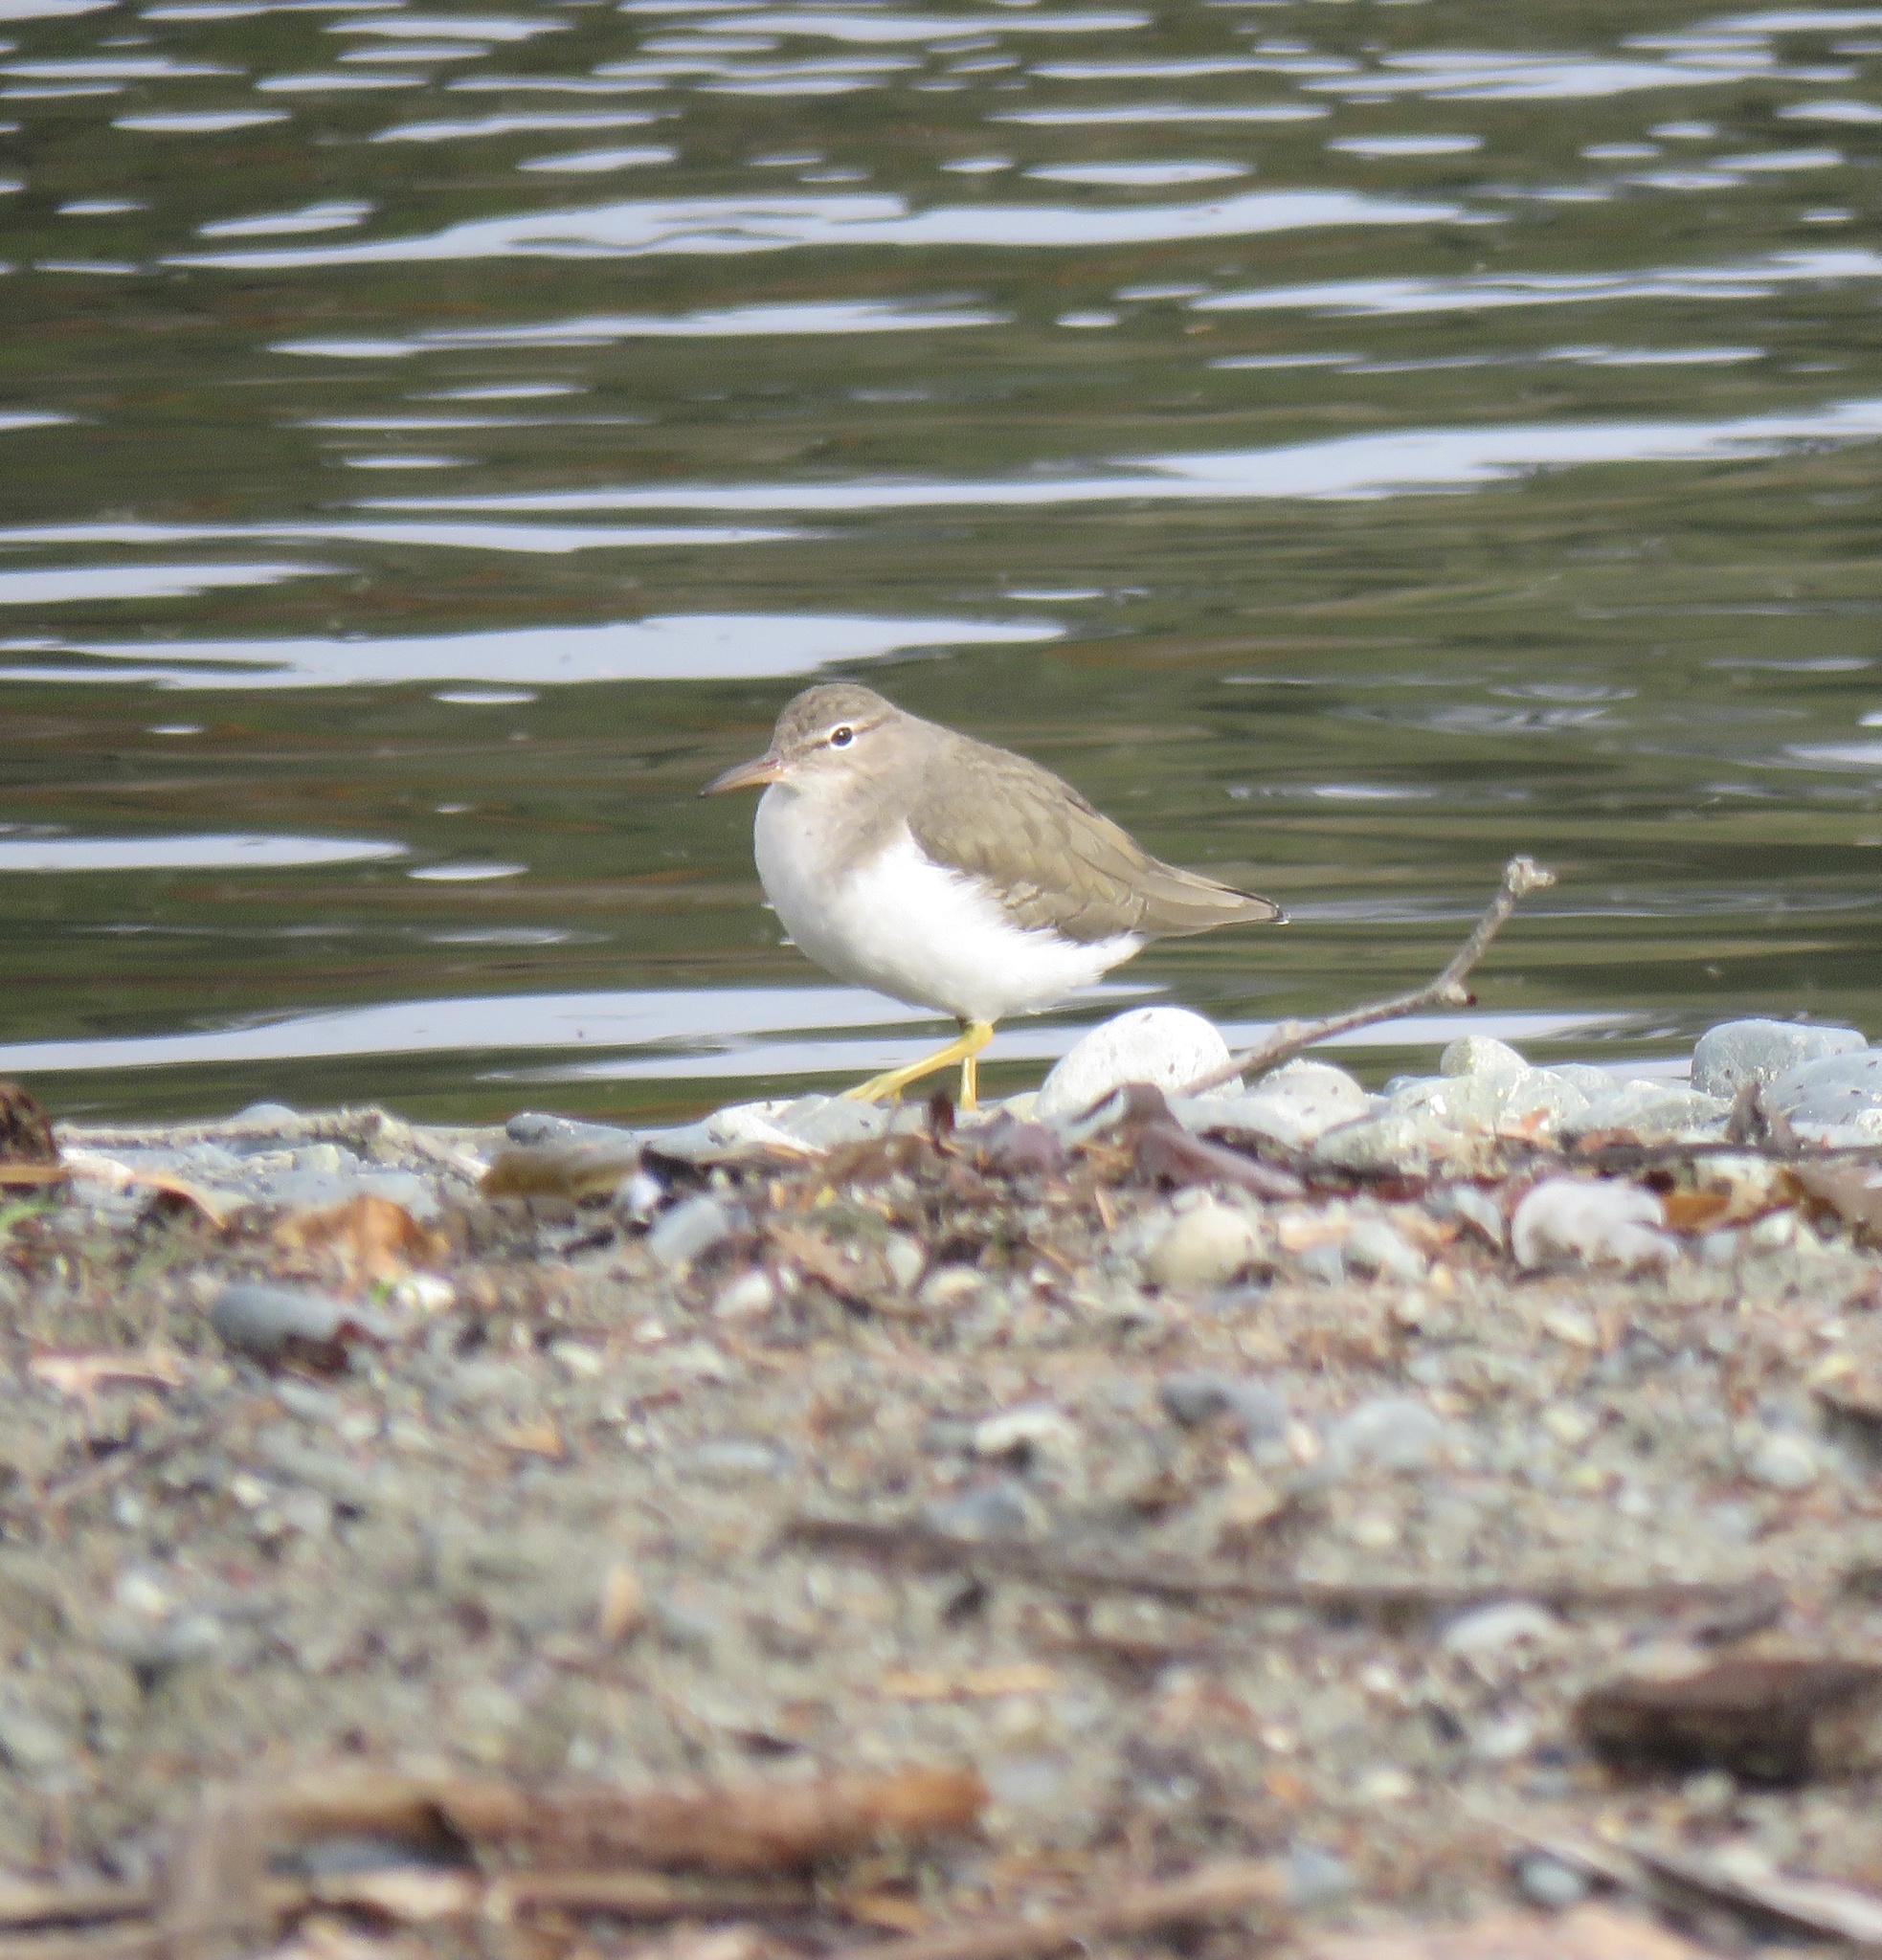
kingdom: Animalia
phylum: Chordata
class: Aves
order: Charadriiformes
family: Scolopacidae
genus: Actitis
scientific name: Actitis macularius
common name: Spotted sandpiper
